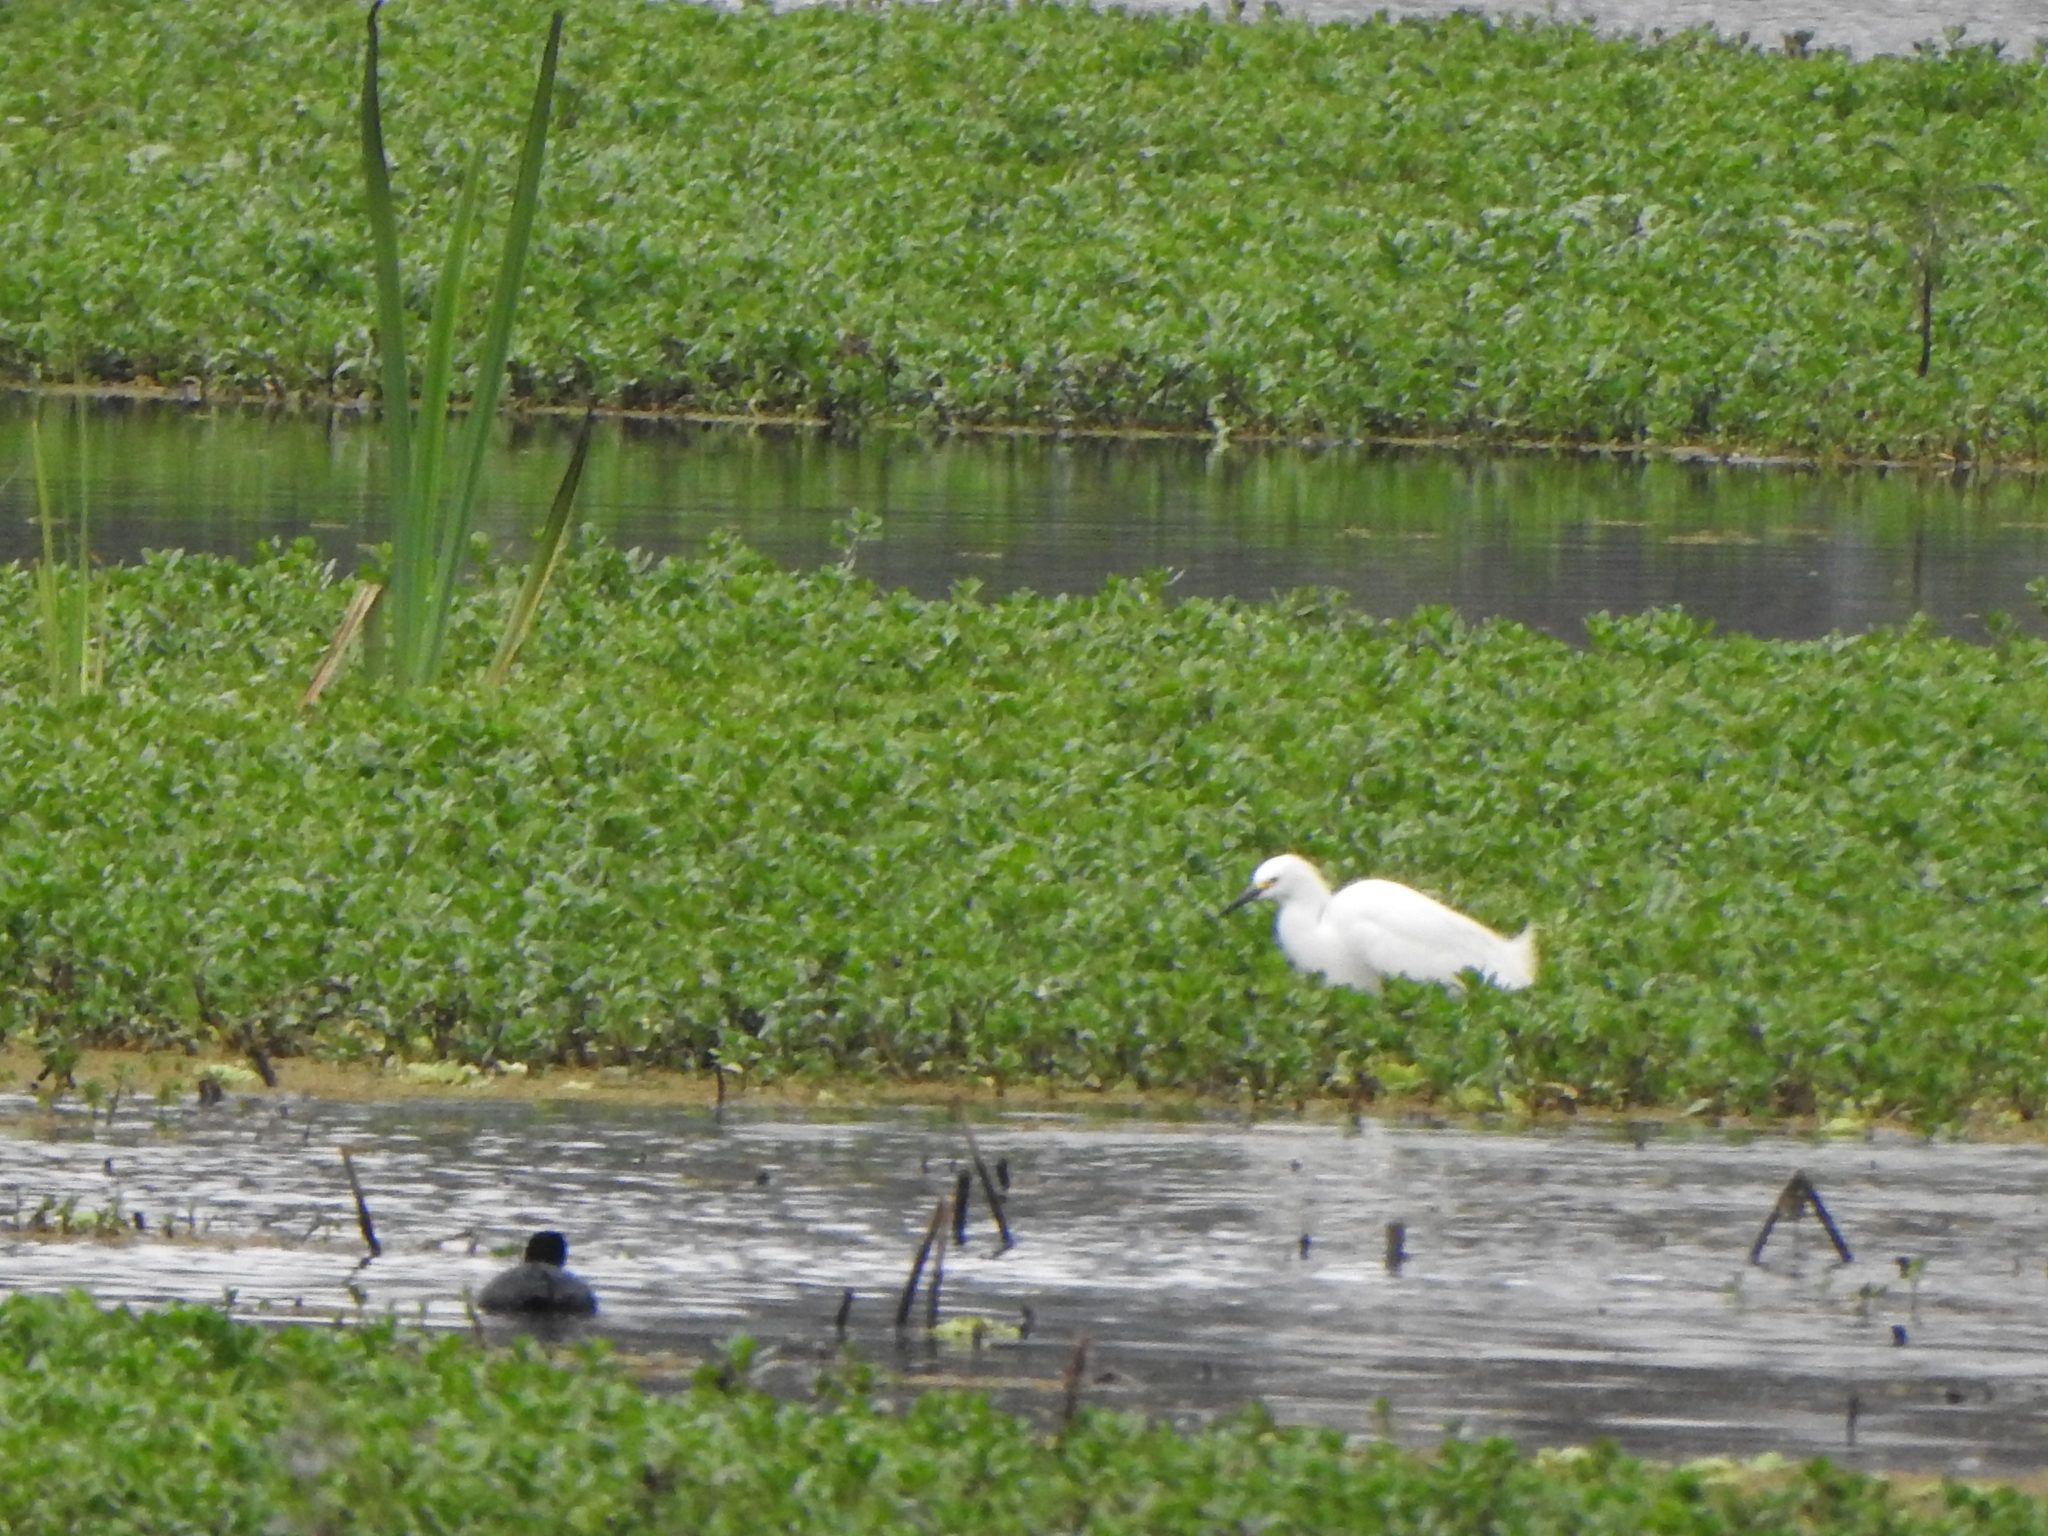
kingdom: Animalia
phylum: Chordata
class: Aves
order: Pelecaniformes
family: Ardeidae
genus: Egretta
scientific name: Egretta thula
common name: Snowy egret
